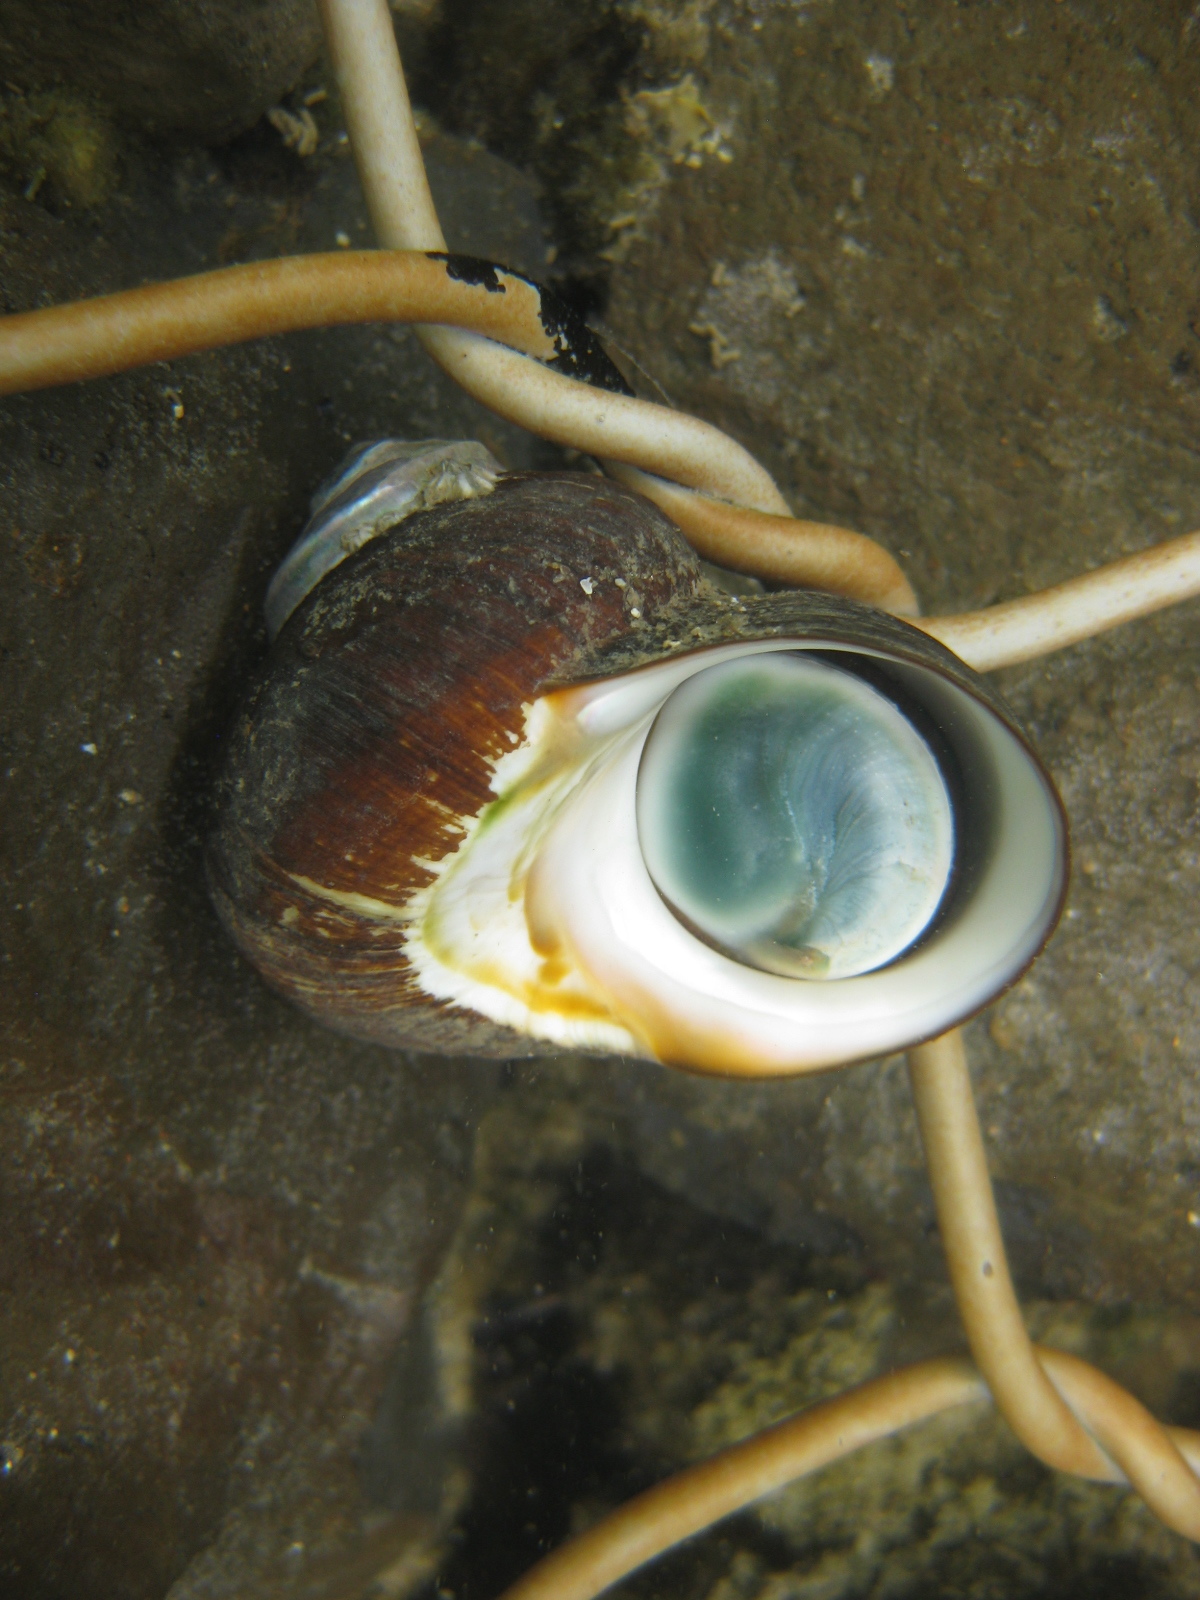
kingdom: Animalia
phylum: Mollusca
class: Gastropoda
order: Trochida
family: Turbinidae
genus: Lunella
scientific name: Lunella smaragda
